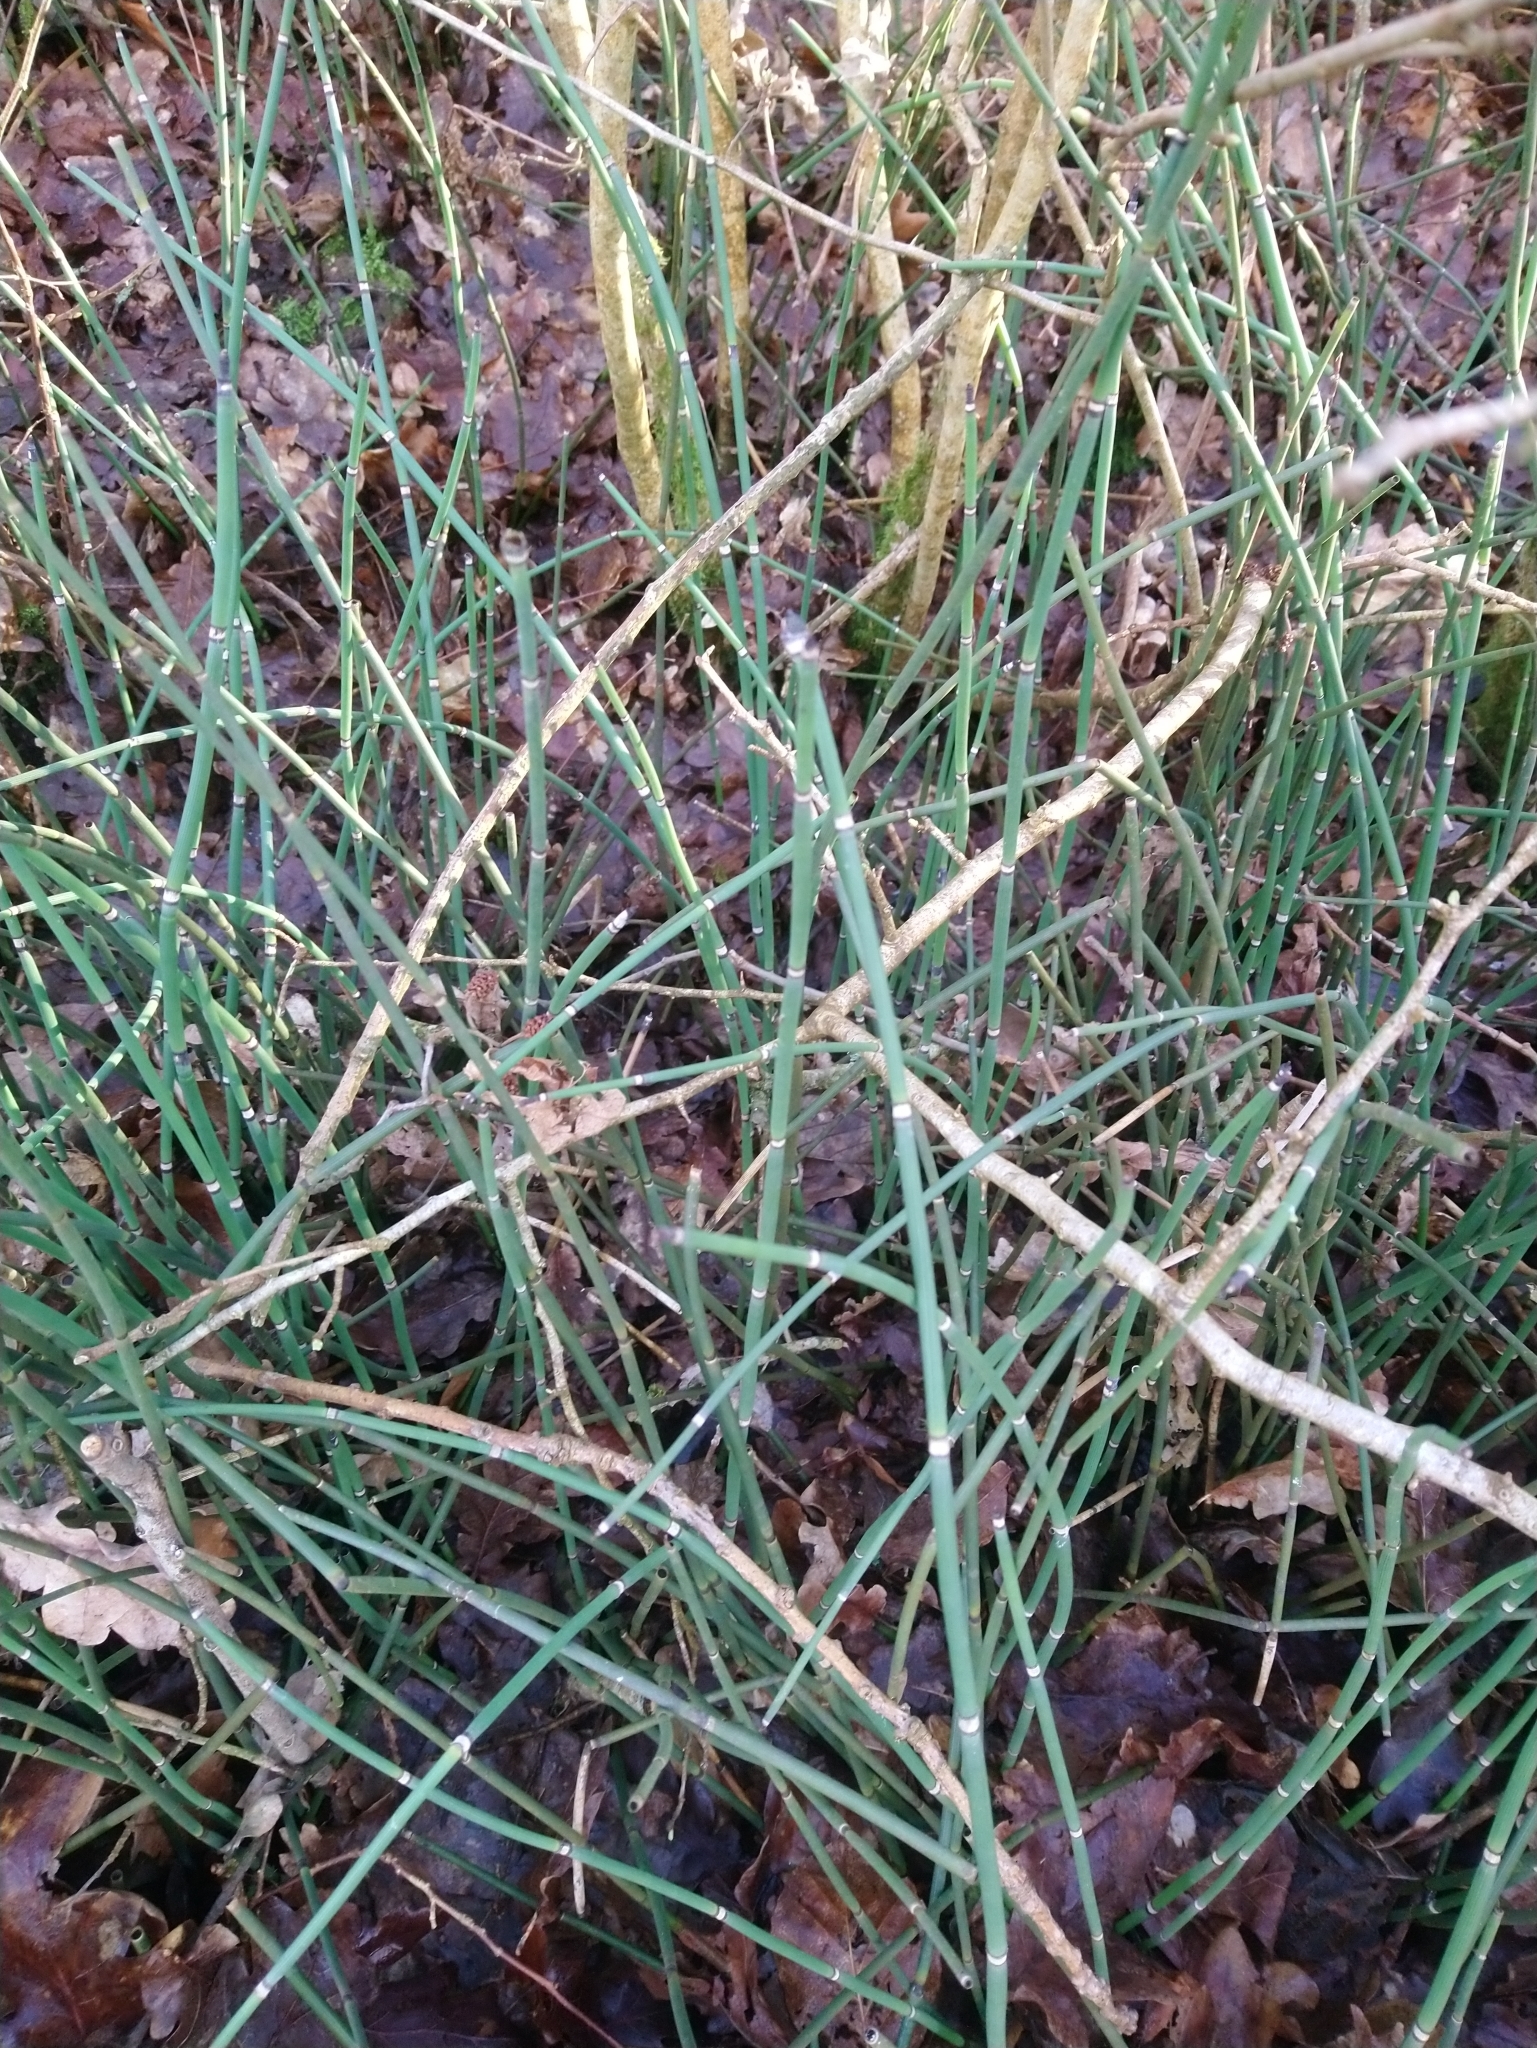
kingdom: Plantae
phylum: Tracheophyta
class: Polypodiopsida
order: Equisetales
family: Equisetaceae
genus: Equisetum
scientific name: Equisetum hyemale
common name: Rough horsetail
